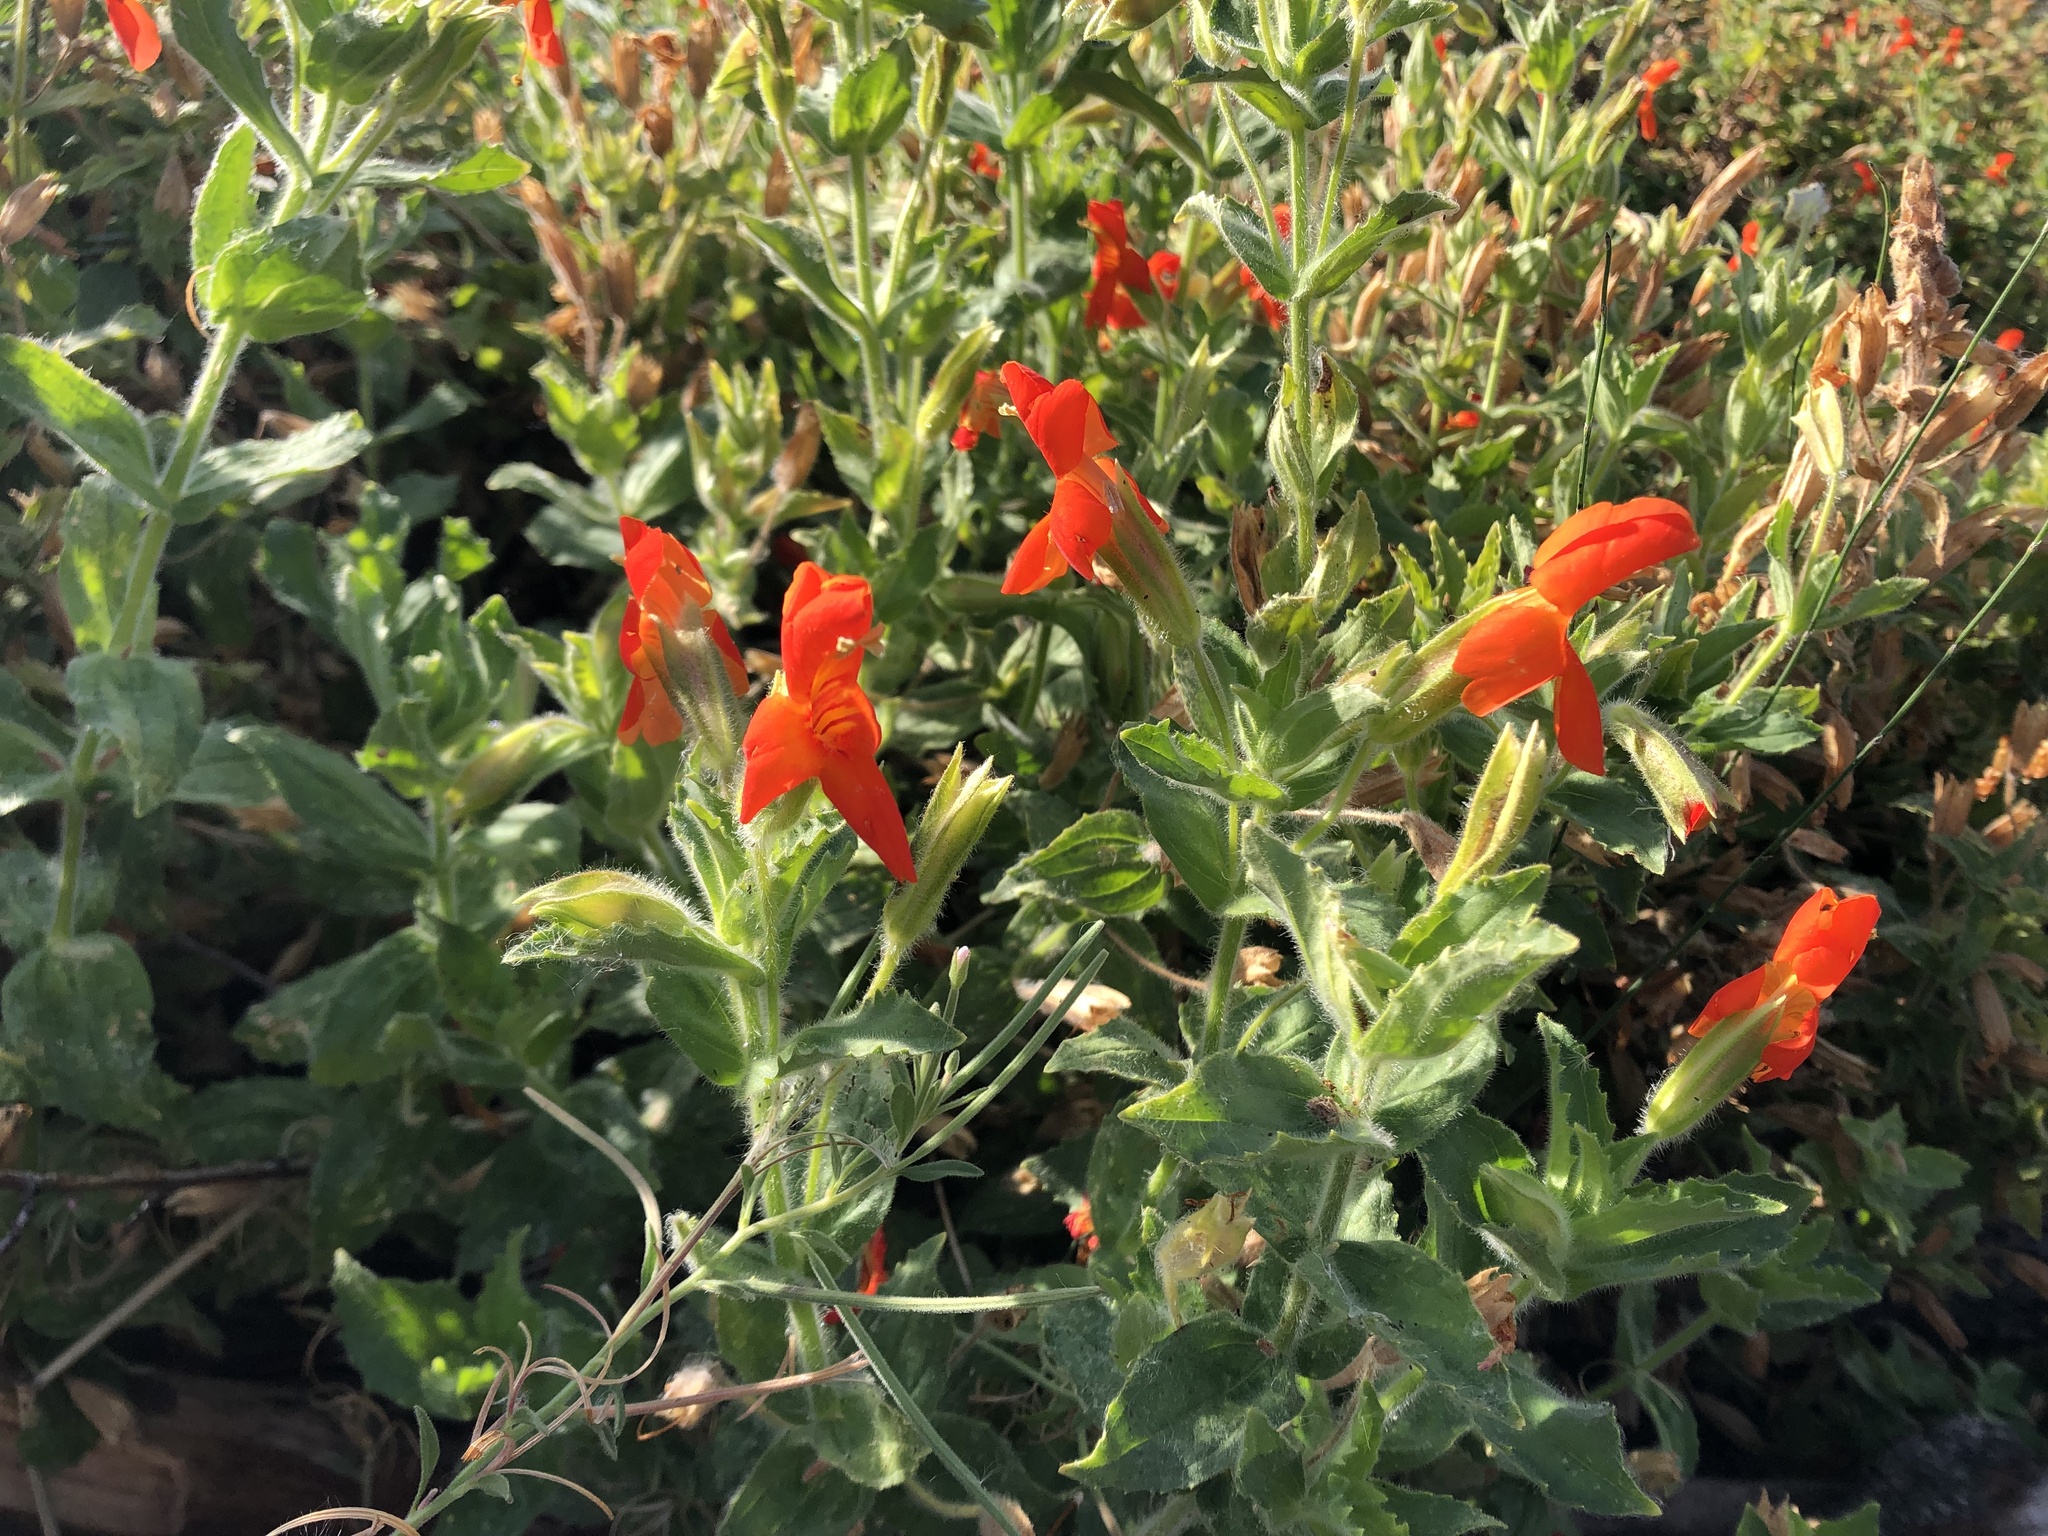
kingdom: Plantae
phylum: Tracheophyta
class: Magnoliopsida
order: Lamiales
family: Phrymaceae
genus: Erythranthe
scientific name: Erythranthe cardinalis
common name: Scarlet monkey-flower
